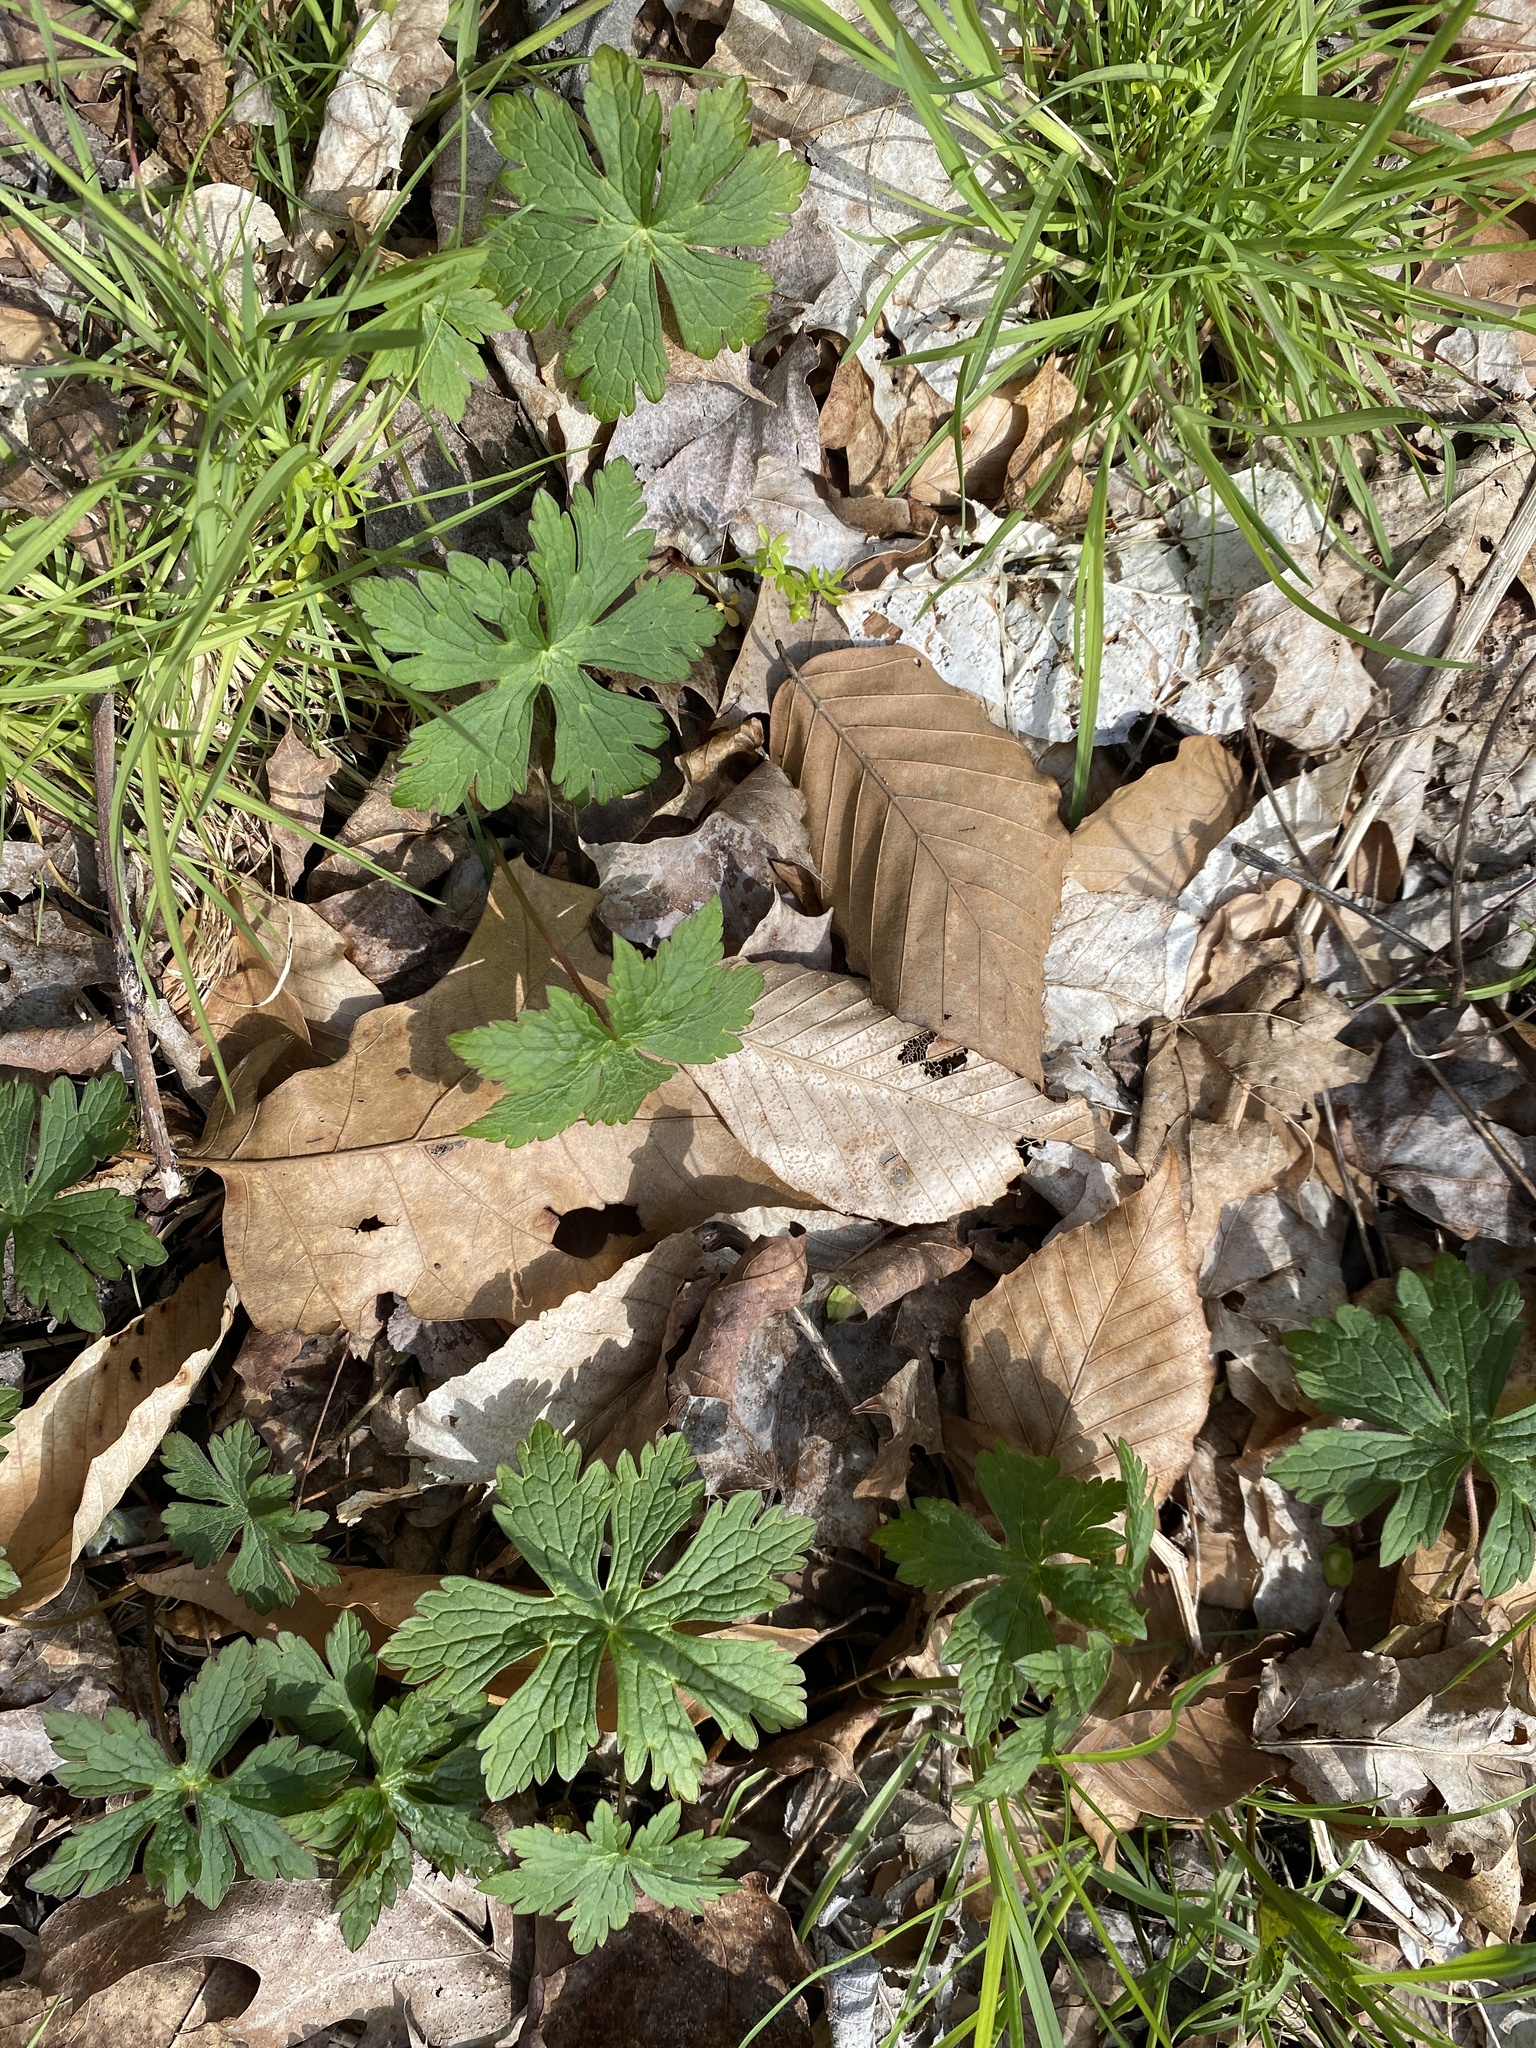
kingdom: Plantae
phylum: Tracheophyta
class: Magnoliopsida
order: Geraniales
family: Geraniaceae
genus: Geranium
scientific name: Geranium maculatum
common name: Spotted geranium
